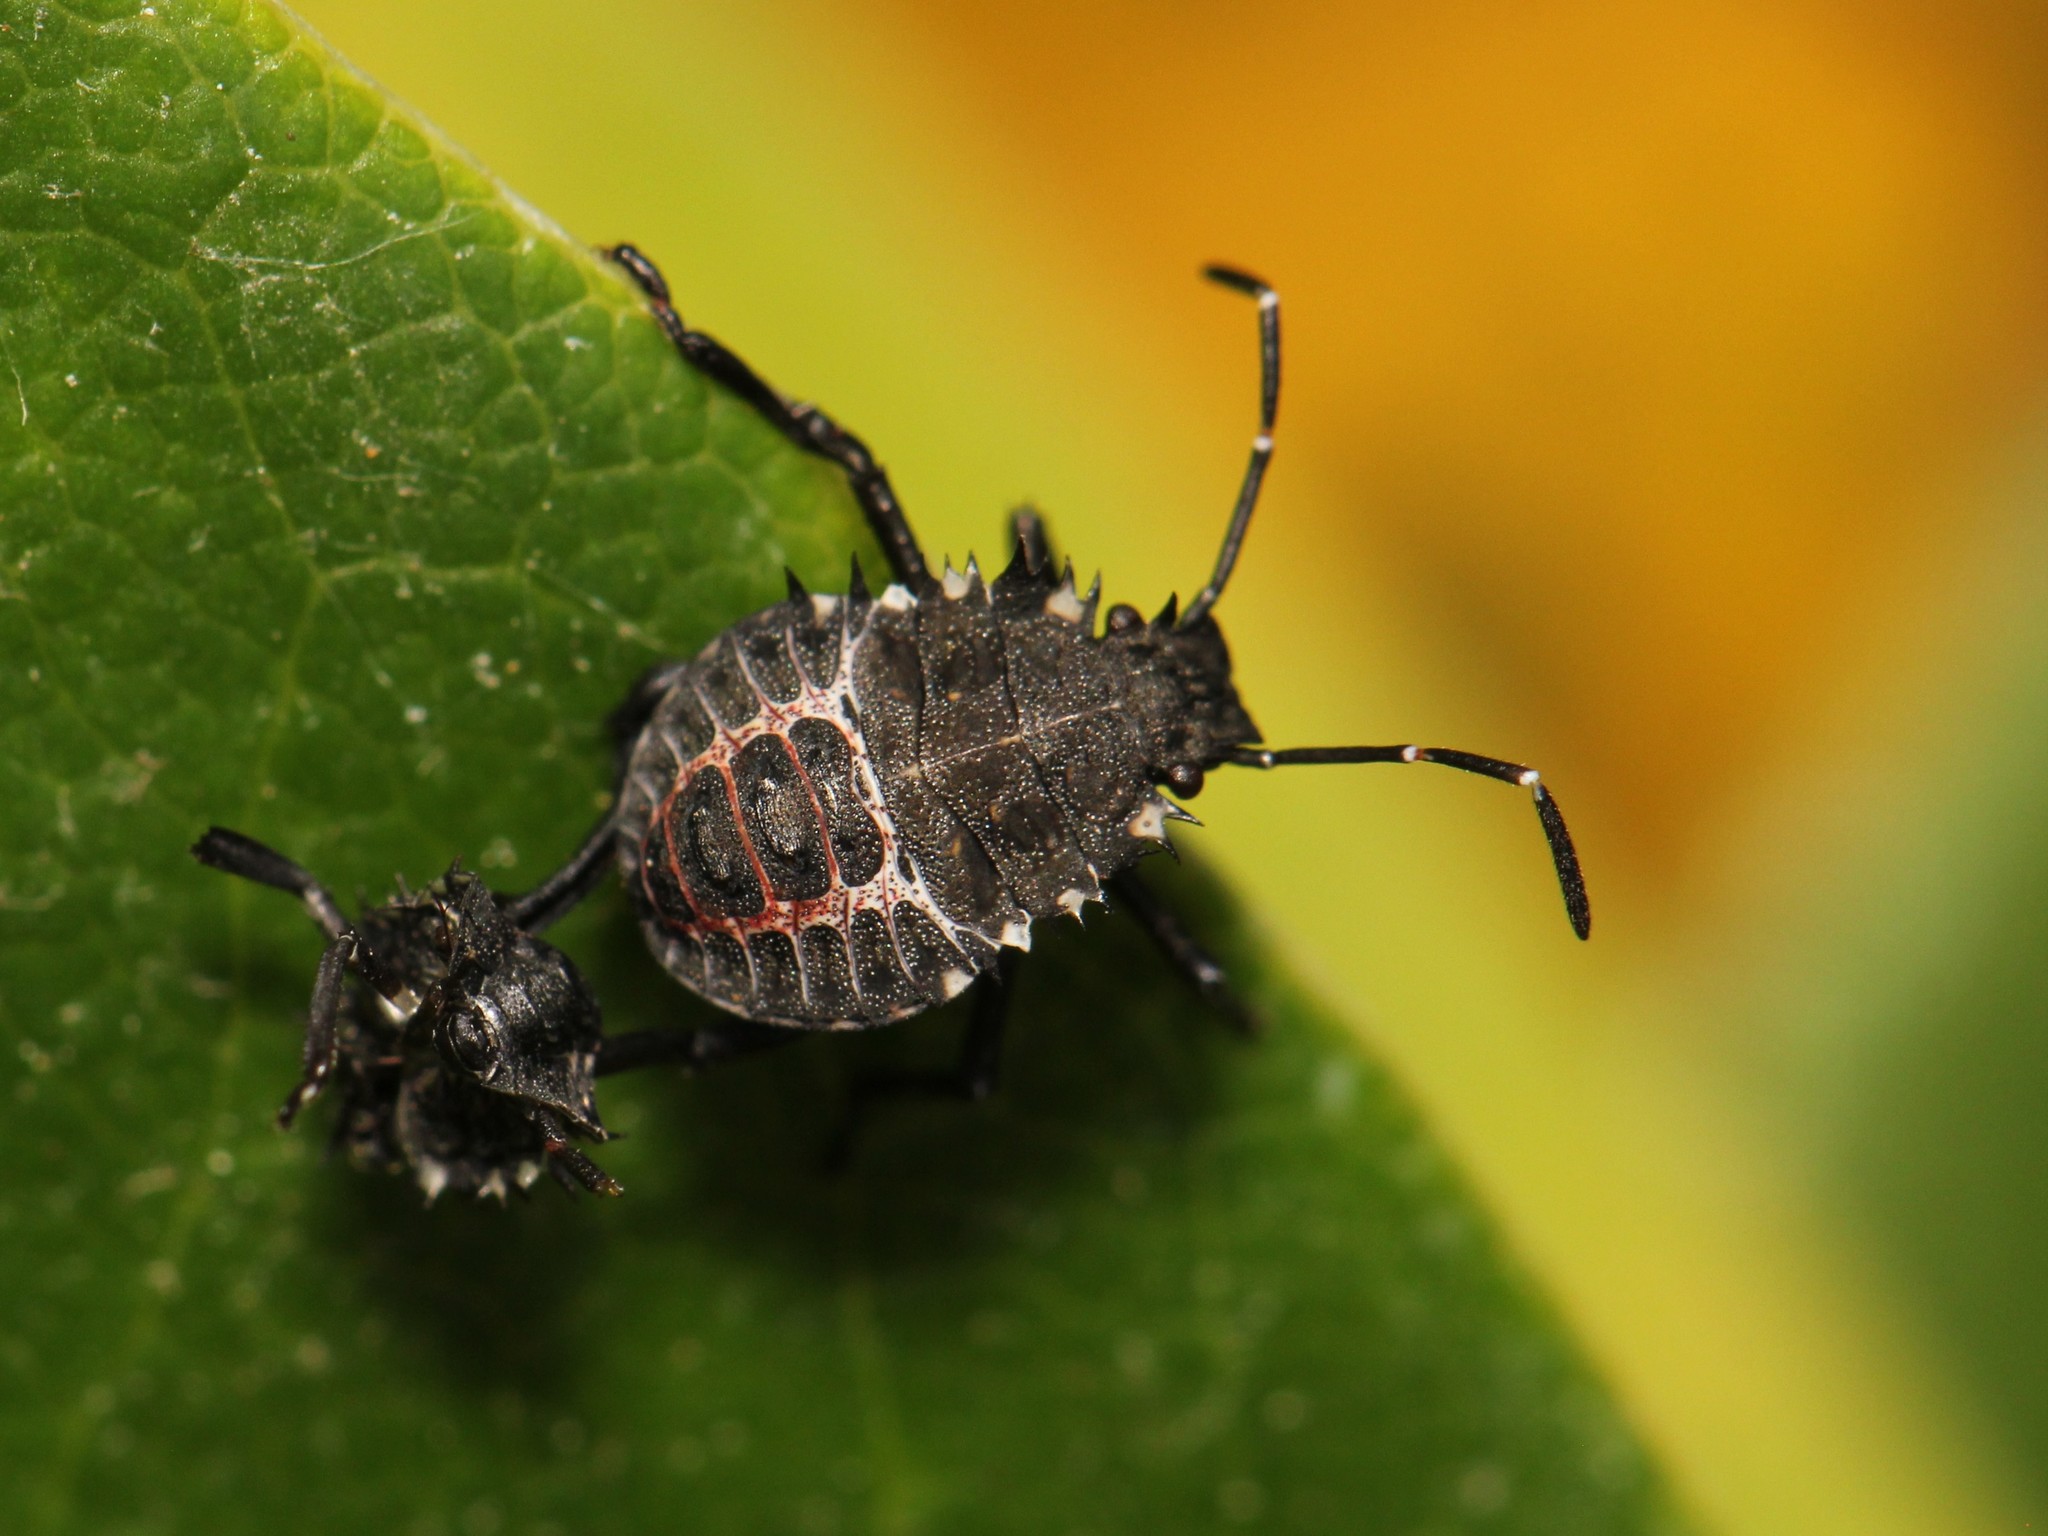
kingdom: Animalia
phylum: Arthropoda
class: Insecta
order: Hemiptera
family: Pentatomidae
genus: Halyomorpha
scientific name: Halyomorpha halys
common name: Brown marmorated stink bug
